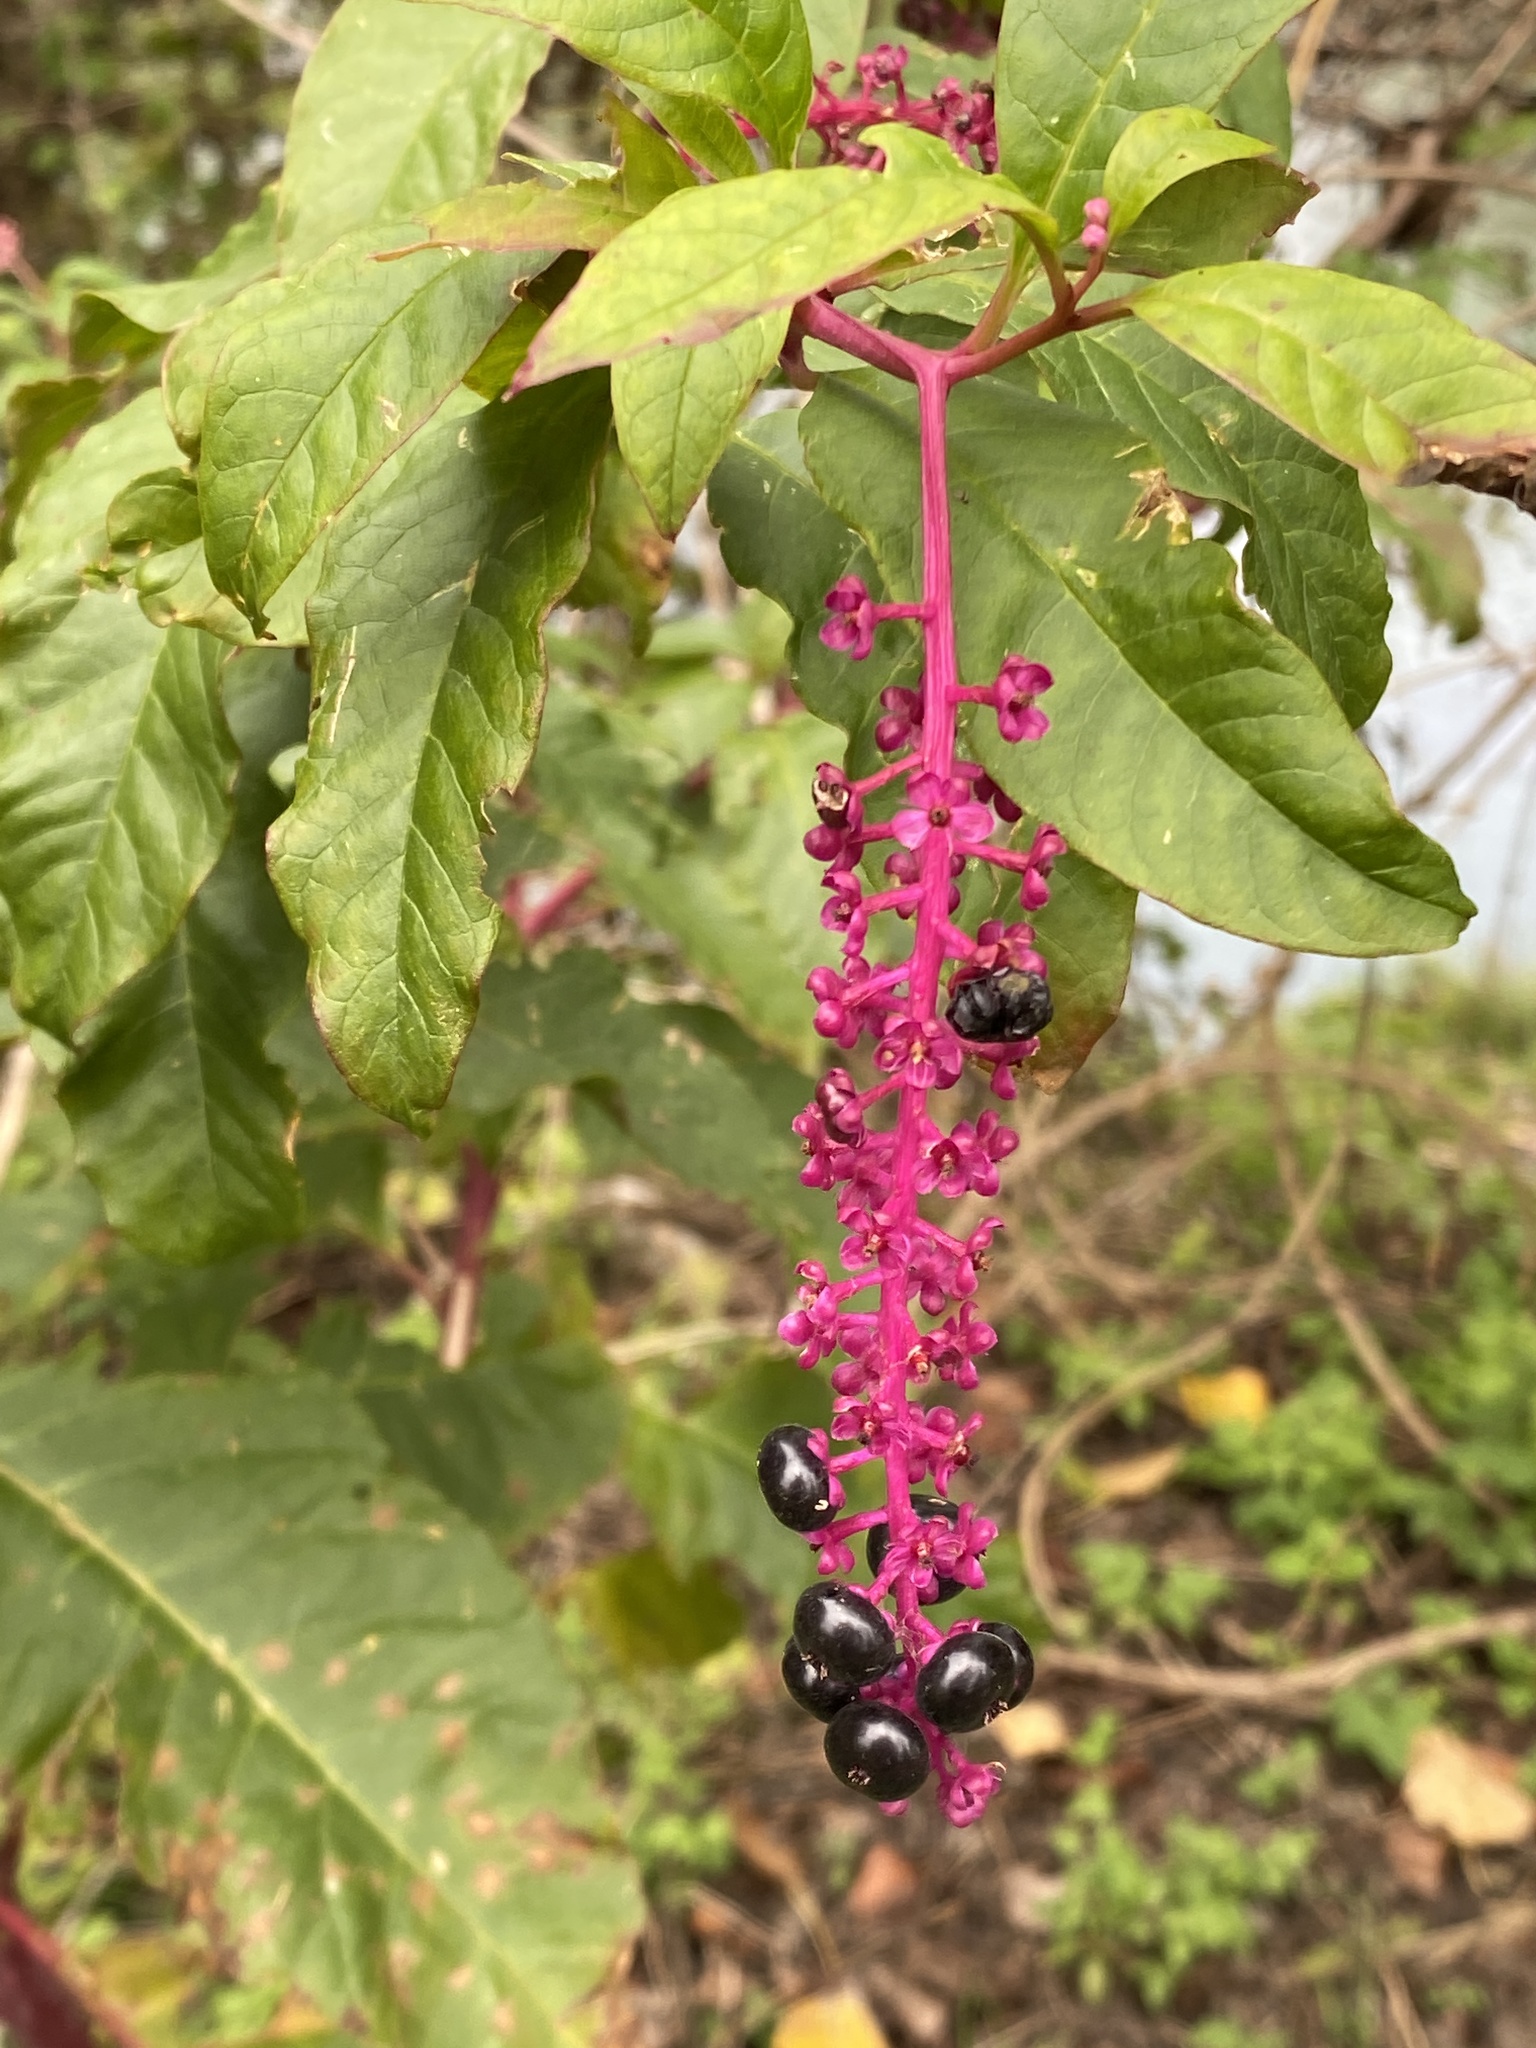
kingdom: Plantae
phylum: Tracheophyta
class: Magnoliopsida
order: Caryophyllales
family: Phytolaccaceae
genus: Phytolacca
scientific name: Phytolacca americana
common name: American pokeweed
